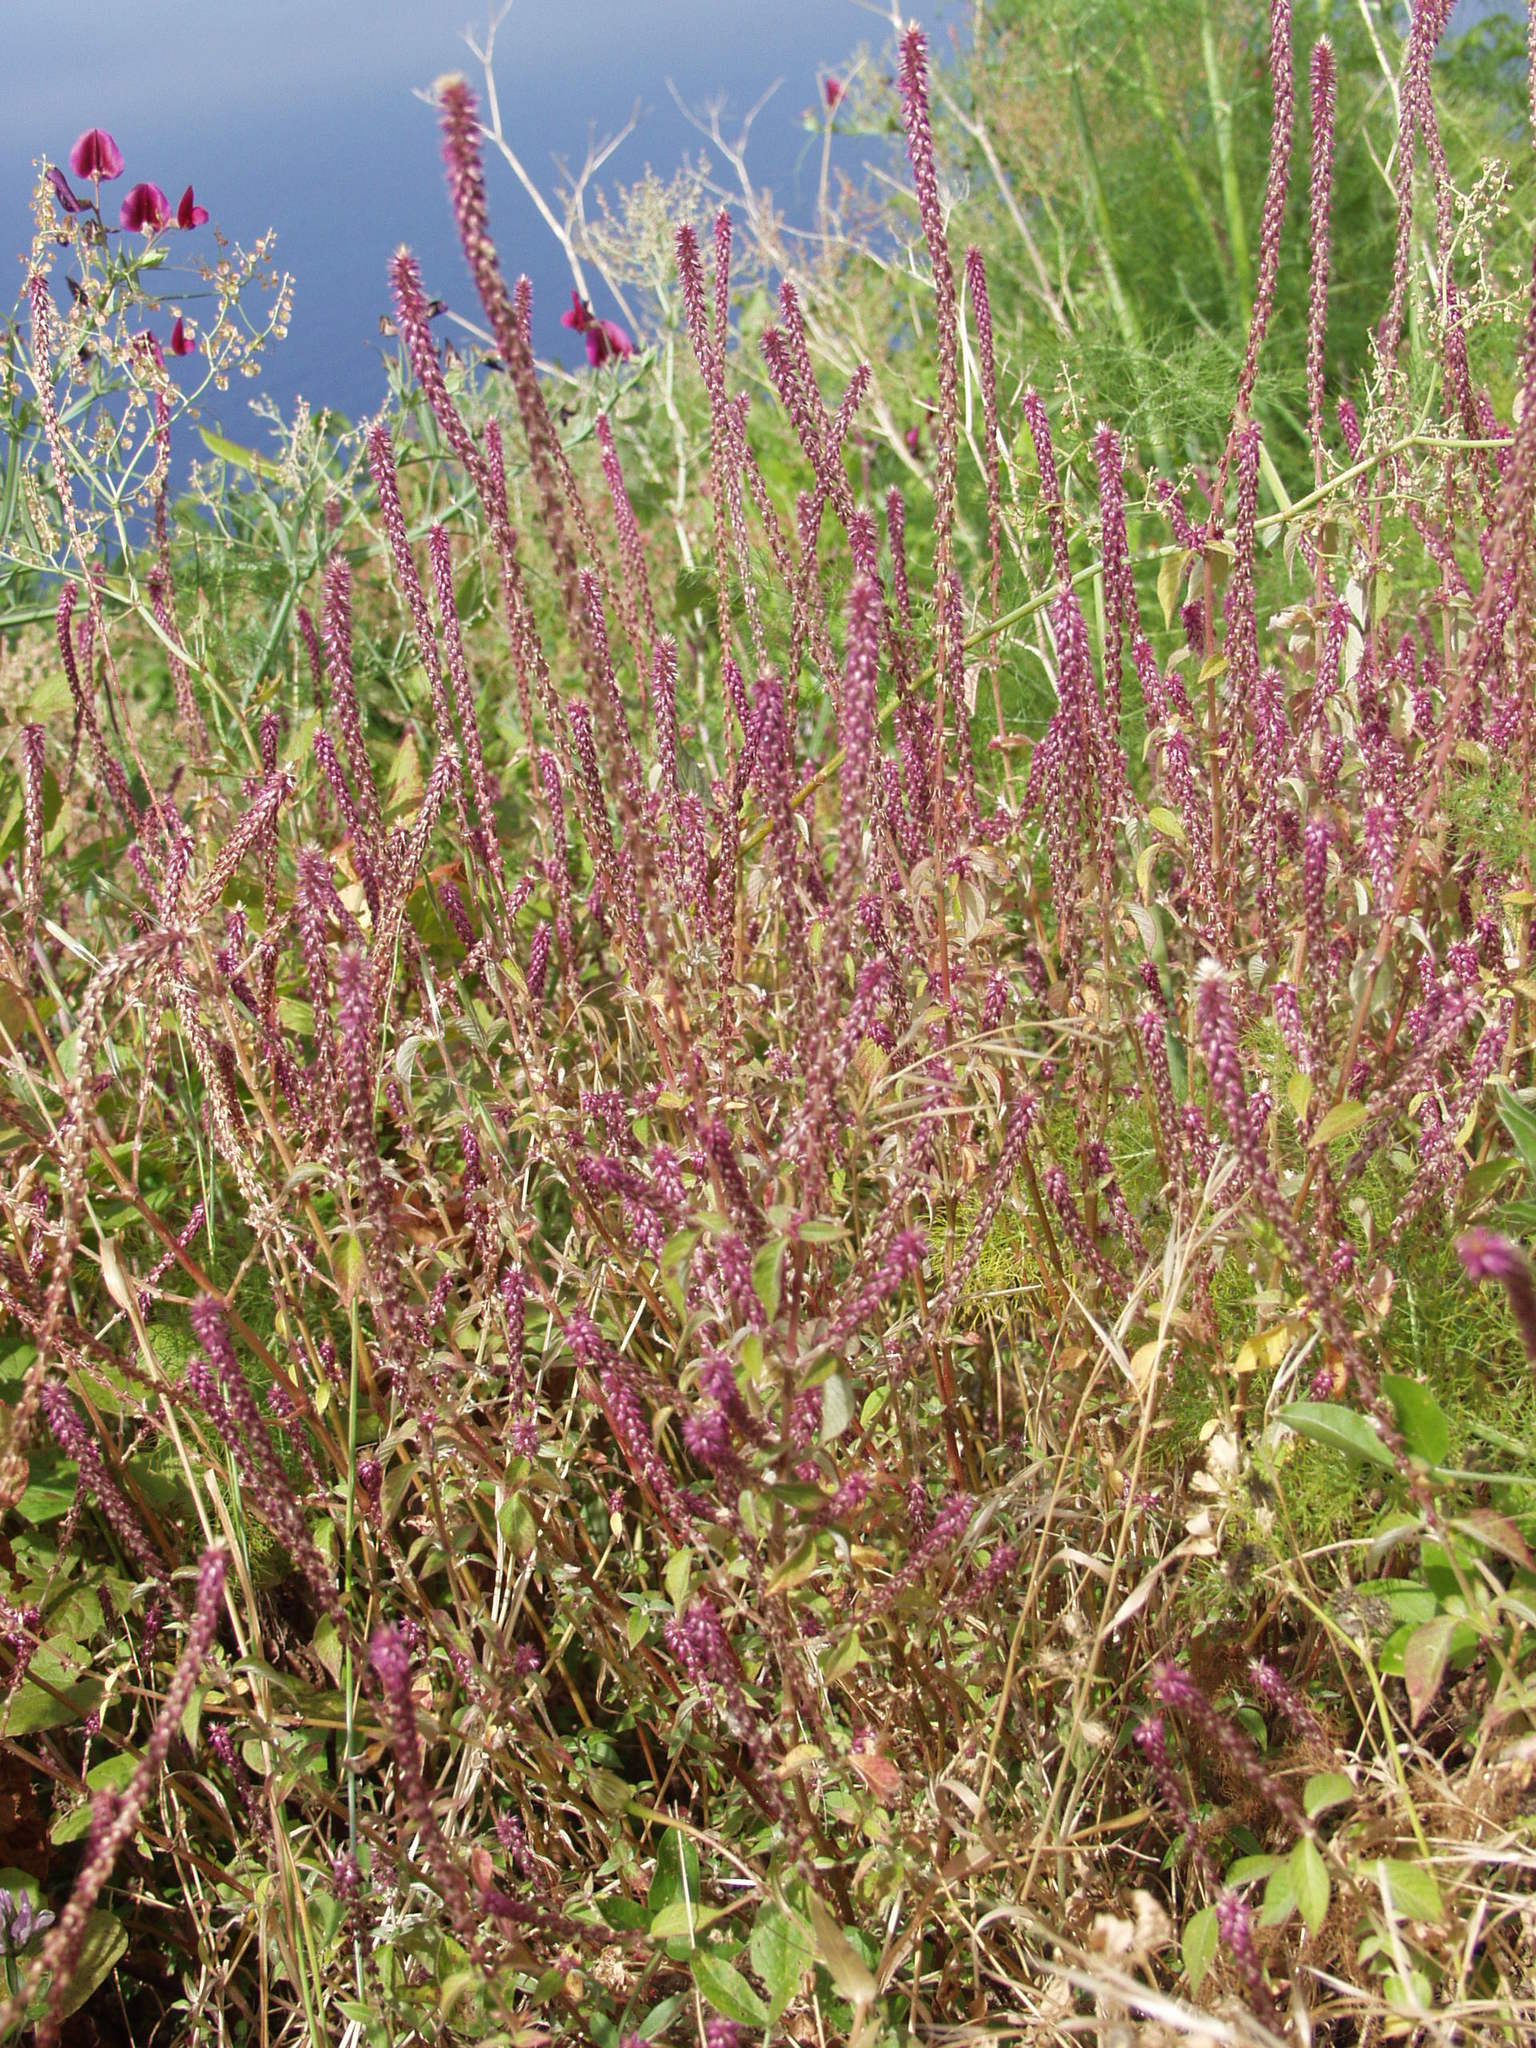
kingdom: Plantae
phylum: Tracheophyta
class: Magnoliopsida
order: Caryophyllales
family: Amaranthaceae
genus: Achyranthes
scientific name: Achyranthes aspera
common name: Devil's horsewhip
